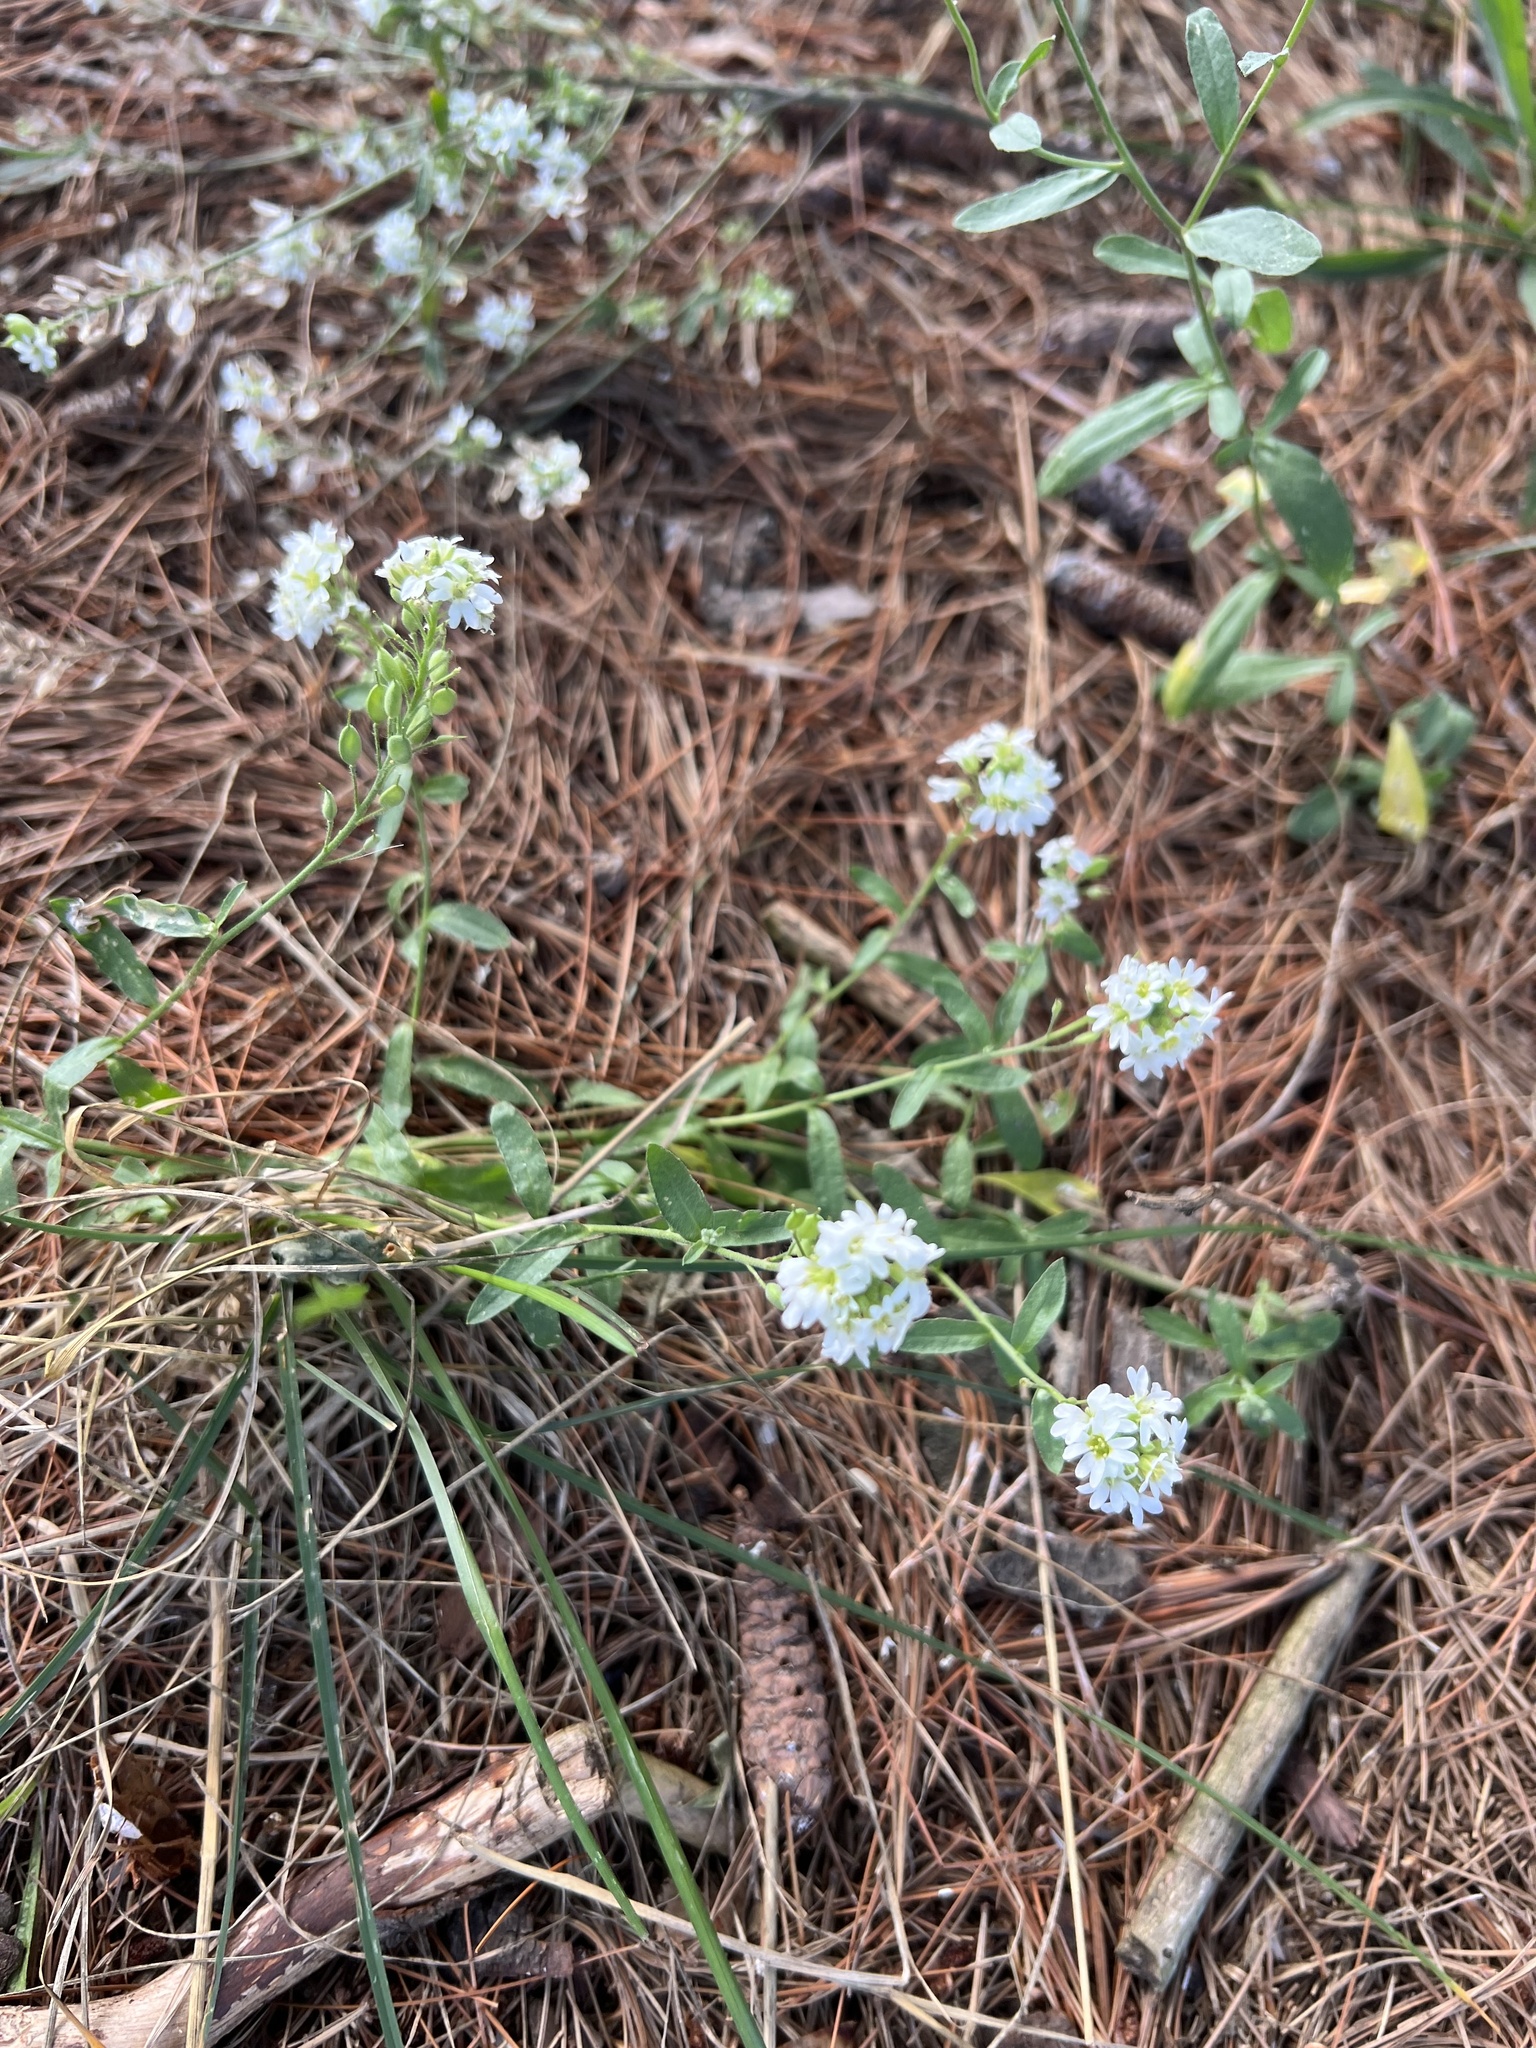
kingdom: Plantae
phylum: Tracheophyta
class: Magnoliopsida
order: Brassicales
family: Brassicaceae
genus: Berteroa
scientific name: Berteroa incana
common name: Hoary alison
